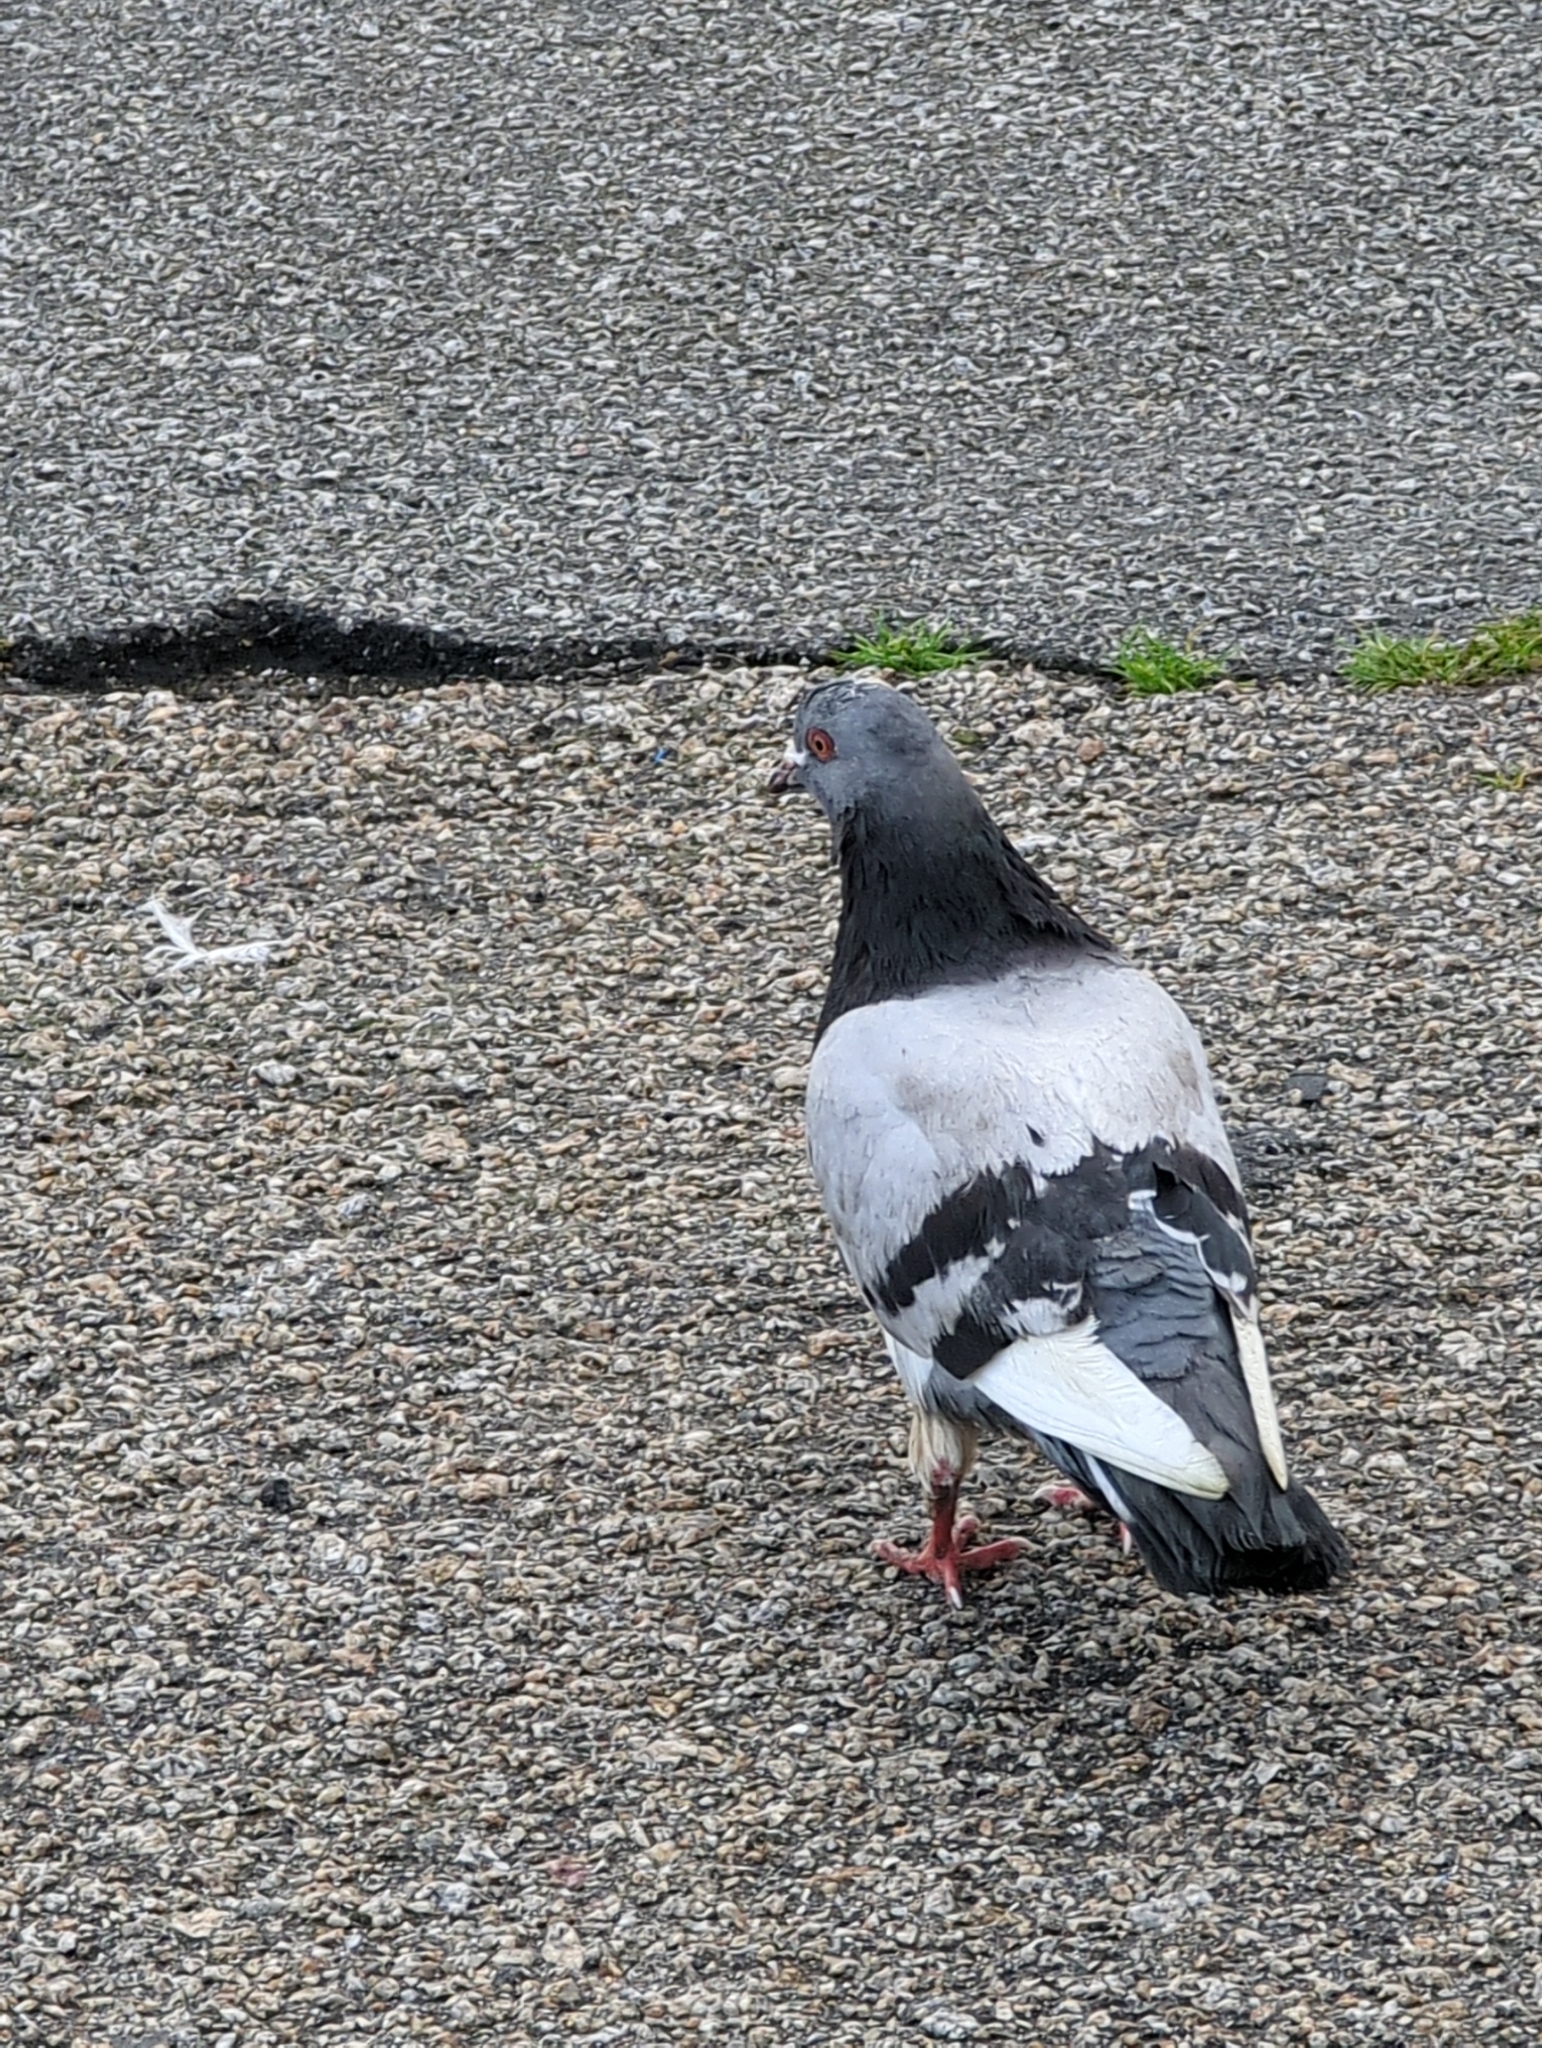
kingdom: Animalia
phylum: Chordata
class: Aves
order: Columbiformes
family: Columbidae
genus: Columba
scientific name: Columba livia
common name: Rock pigeon
